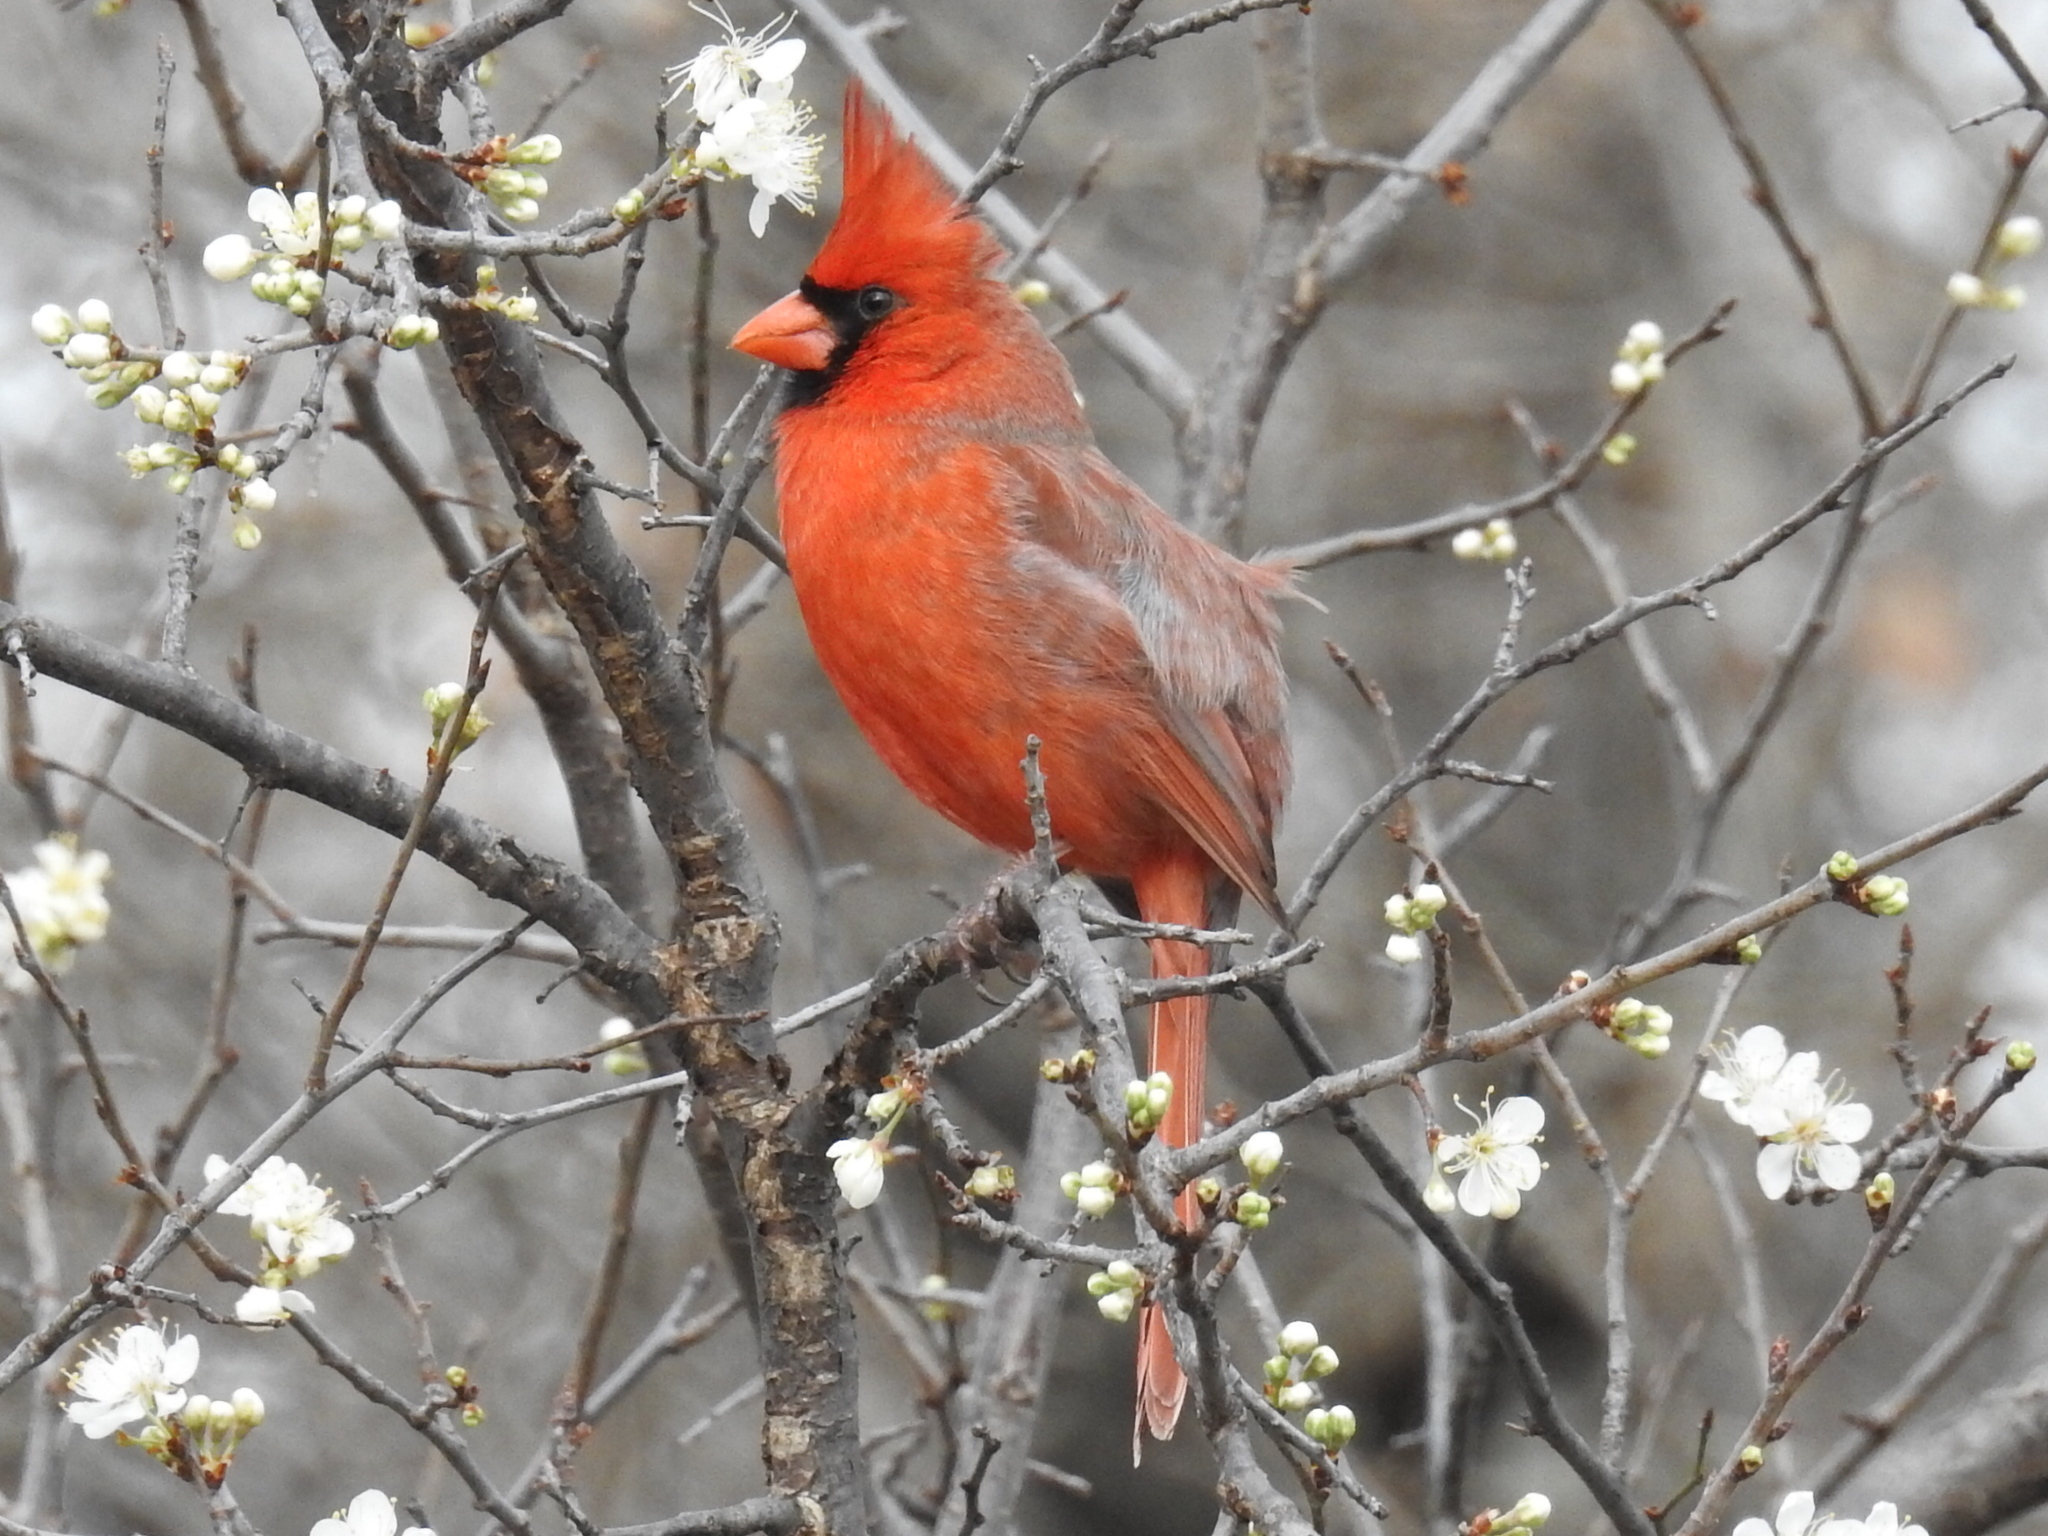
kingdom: Animalia
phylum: Chordata
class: Aves
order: Passeriformes
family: Cardinalidae
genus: Cardinalis
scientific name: Cardinalis cardinalis
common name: Northern cardinal
